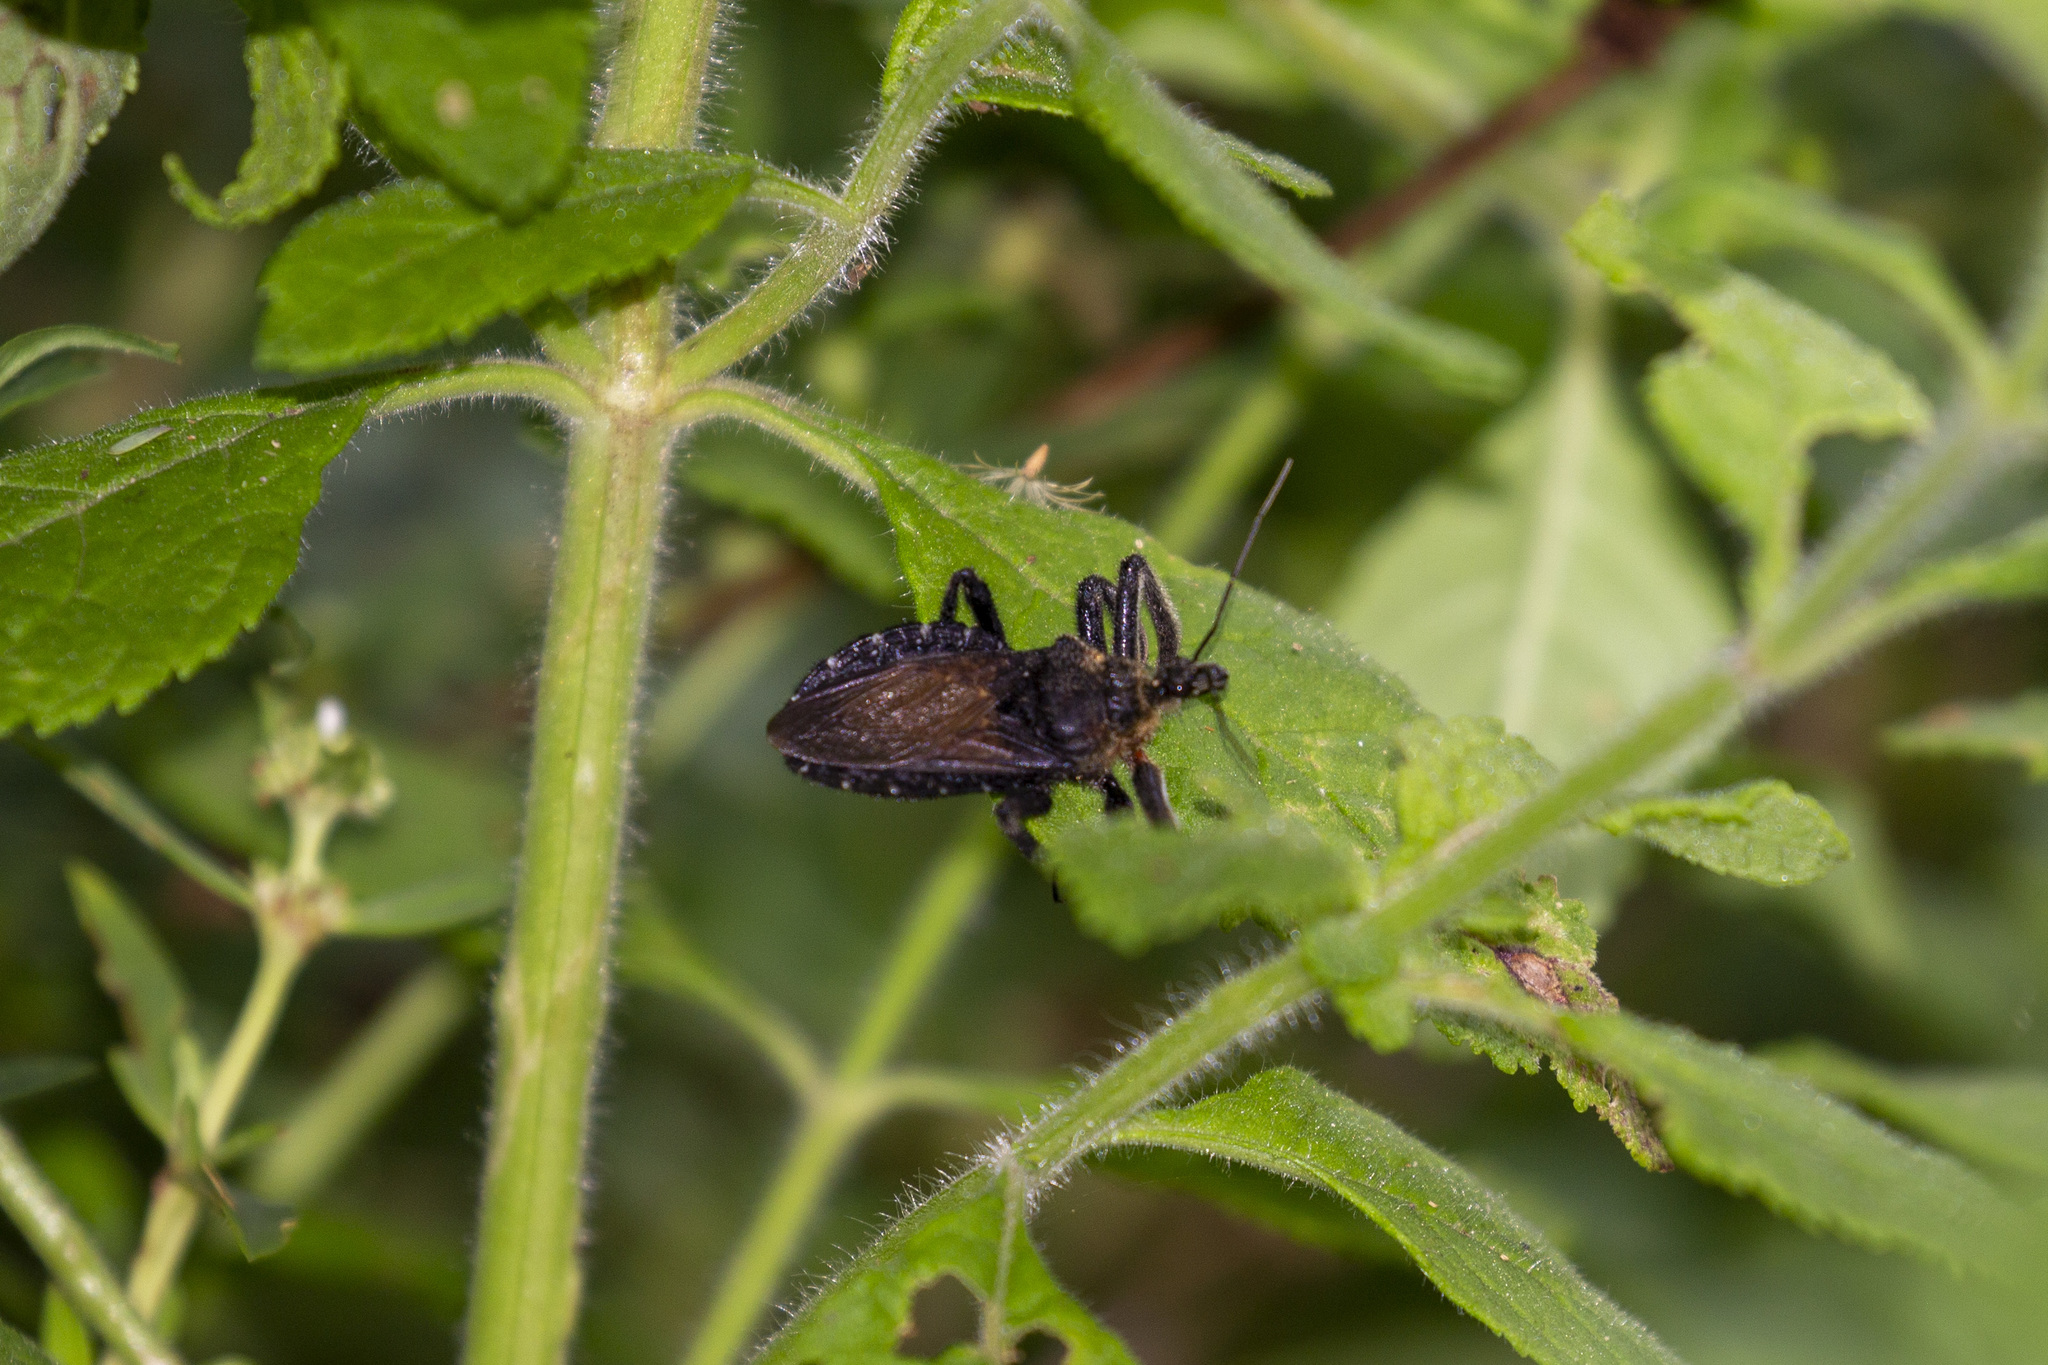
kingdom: Animalia
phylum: Arthropoda
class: Insecta
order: Hemiptera
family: Reduviidae
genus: Apiomerus
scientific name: Apiomerus lanipes
